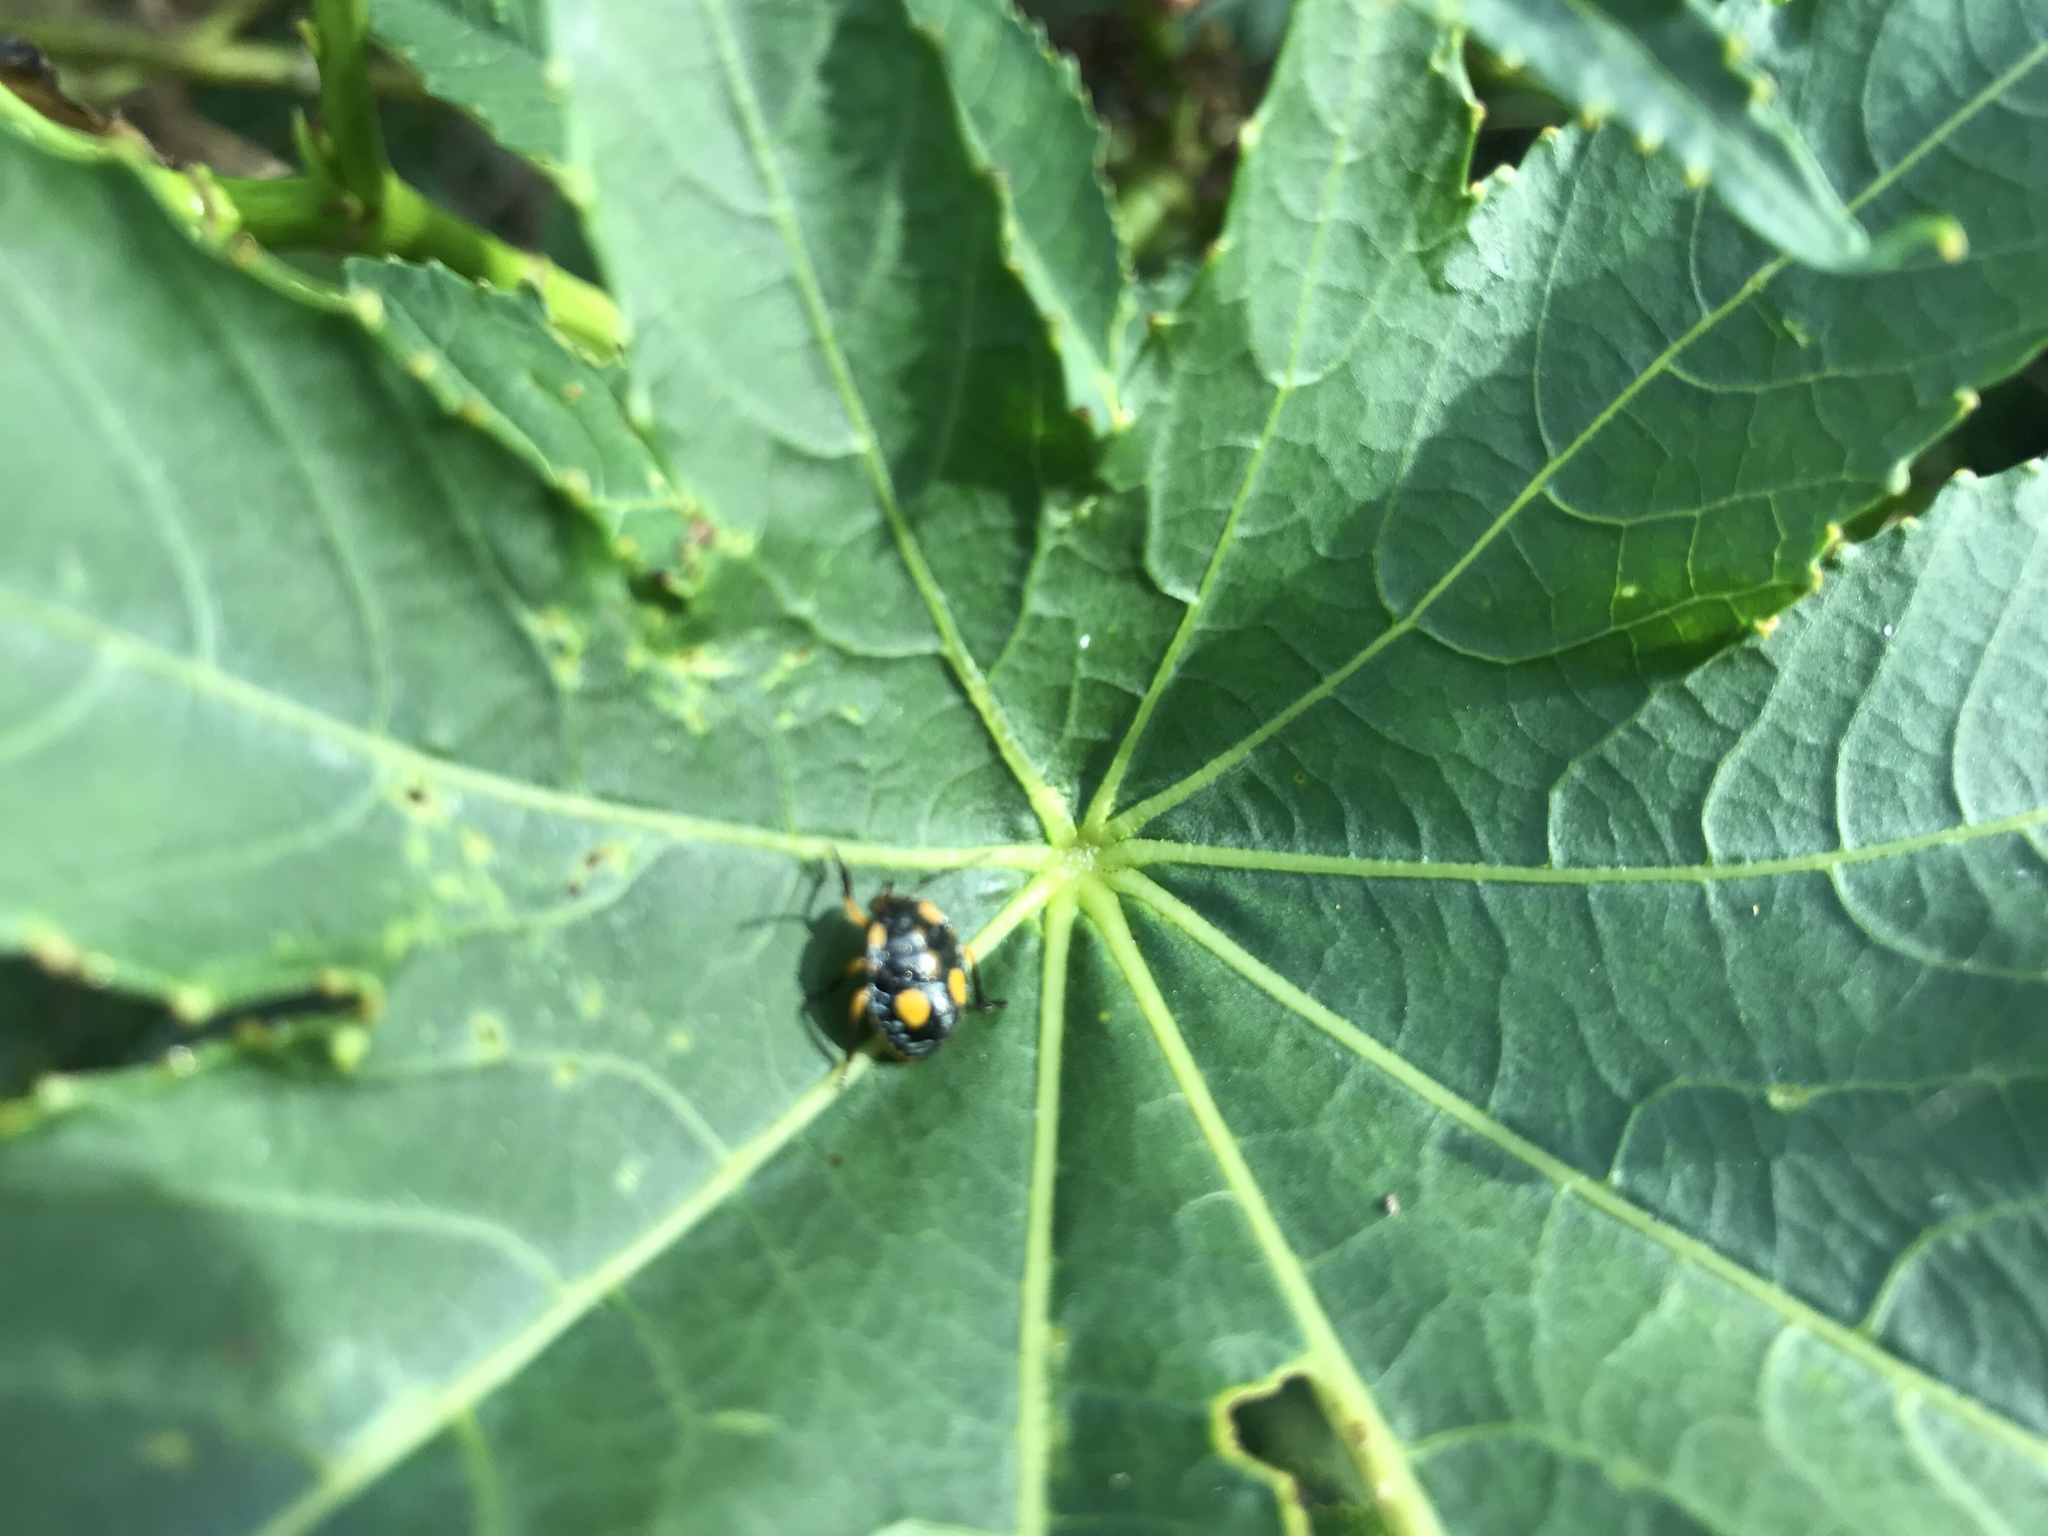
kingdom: Plantae
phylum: Tracheophyta
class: Magnoliopsida
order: Malpighiales
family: Euphorbiaceae
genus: Ricinus
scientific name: Ricinus communis
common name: Castor-oil-plant
